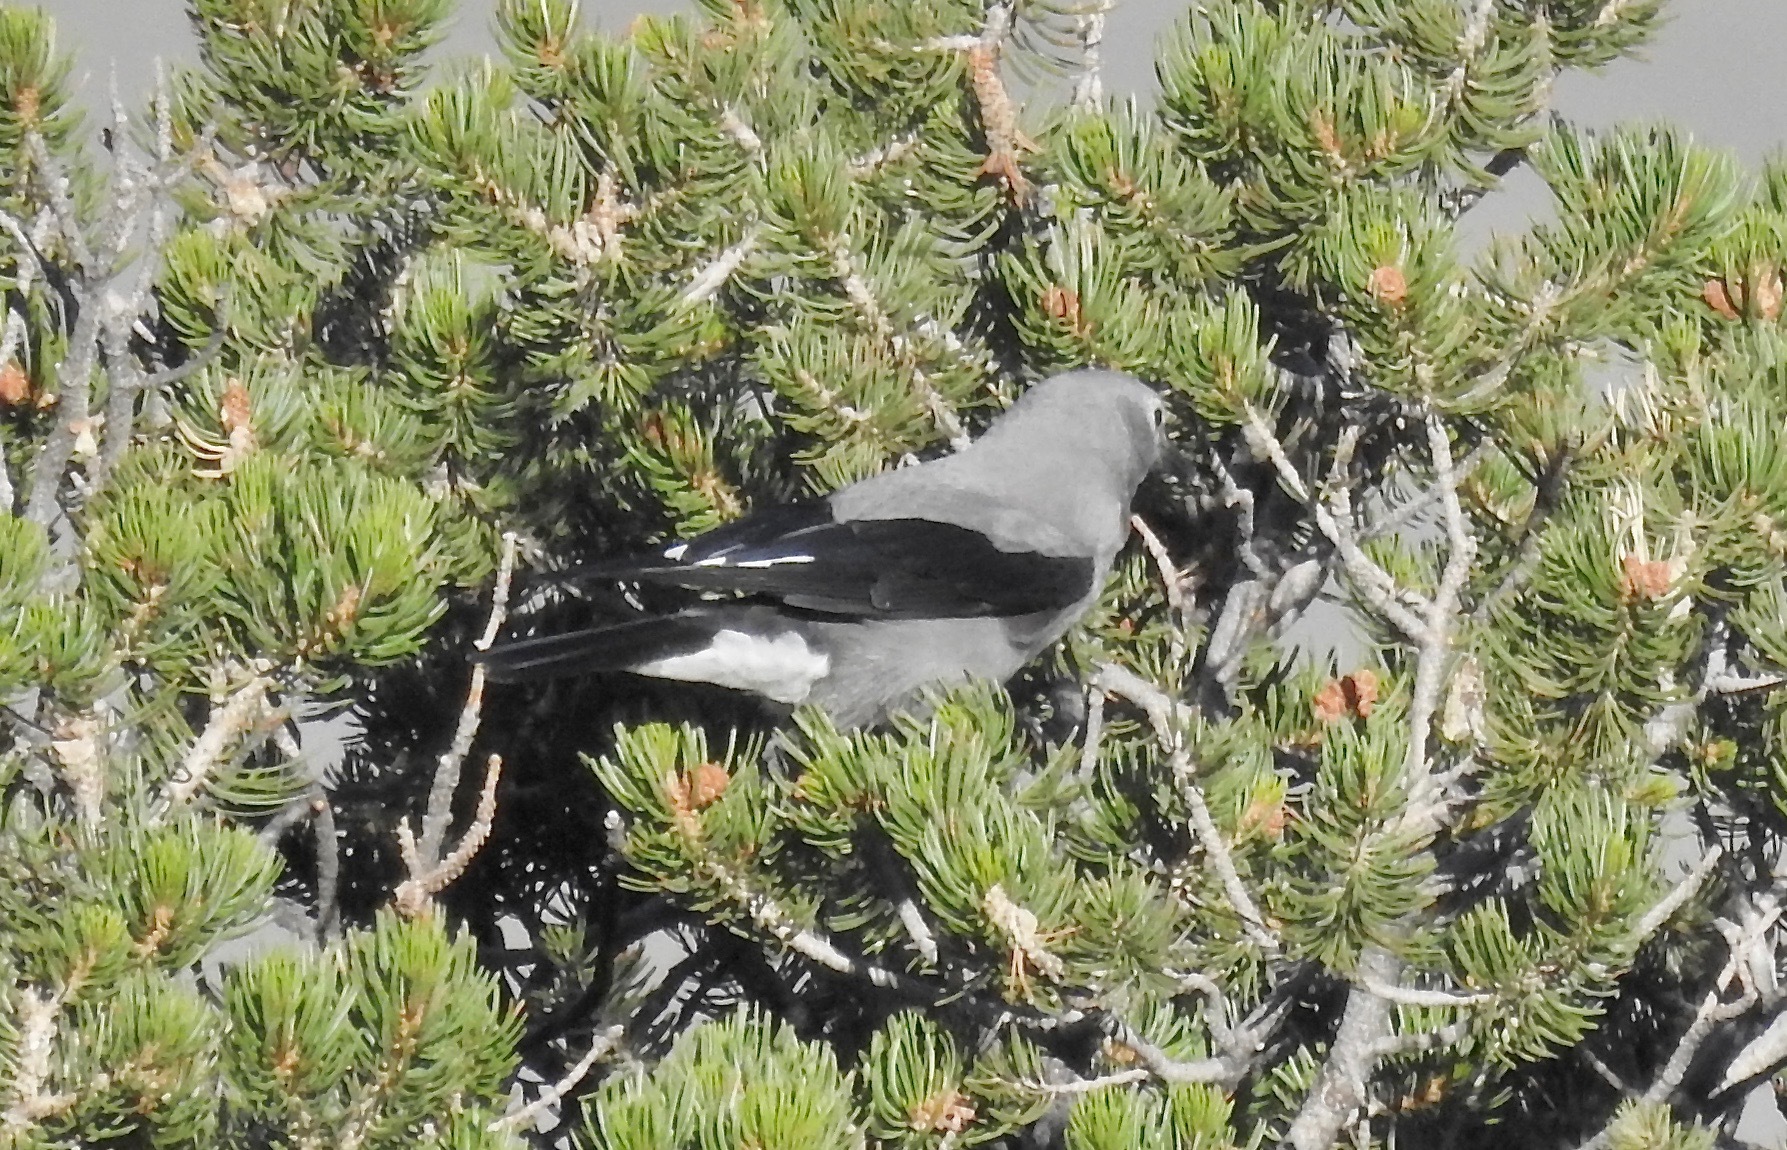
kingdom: Animalia
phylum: Chordata
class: Aves
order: Passeriformes
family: Corvidae
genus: Nucifraga
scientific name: Nucifraga columbiana
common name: Clark's nutcracker
